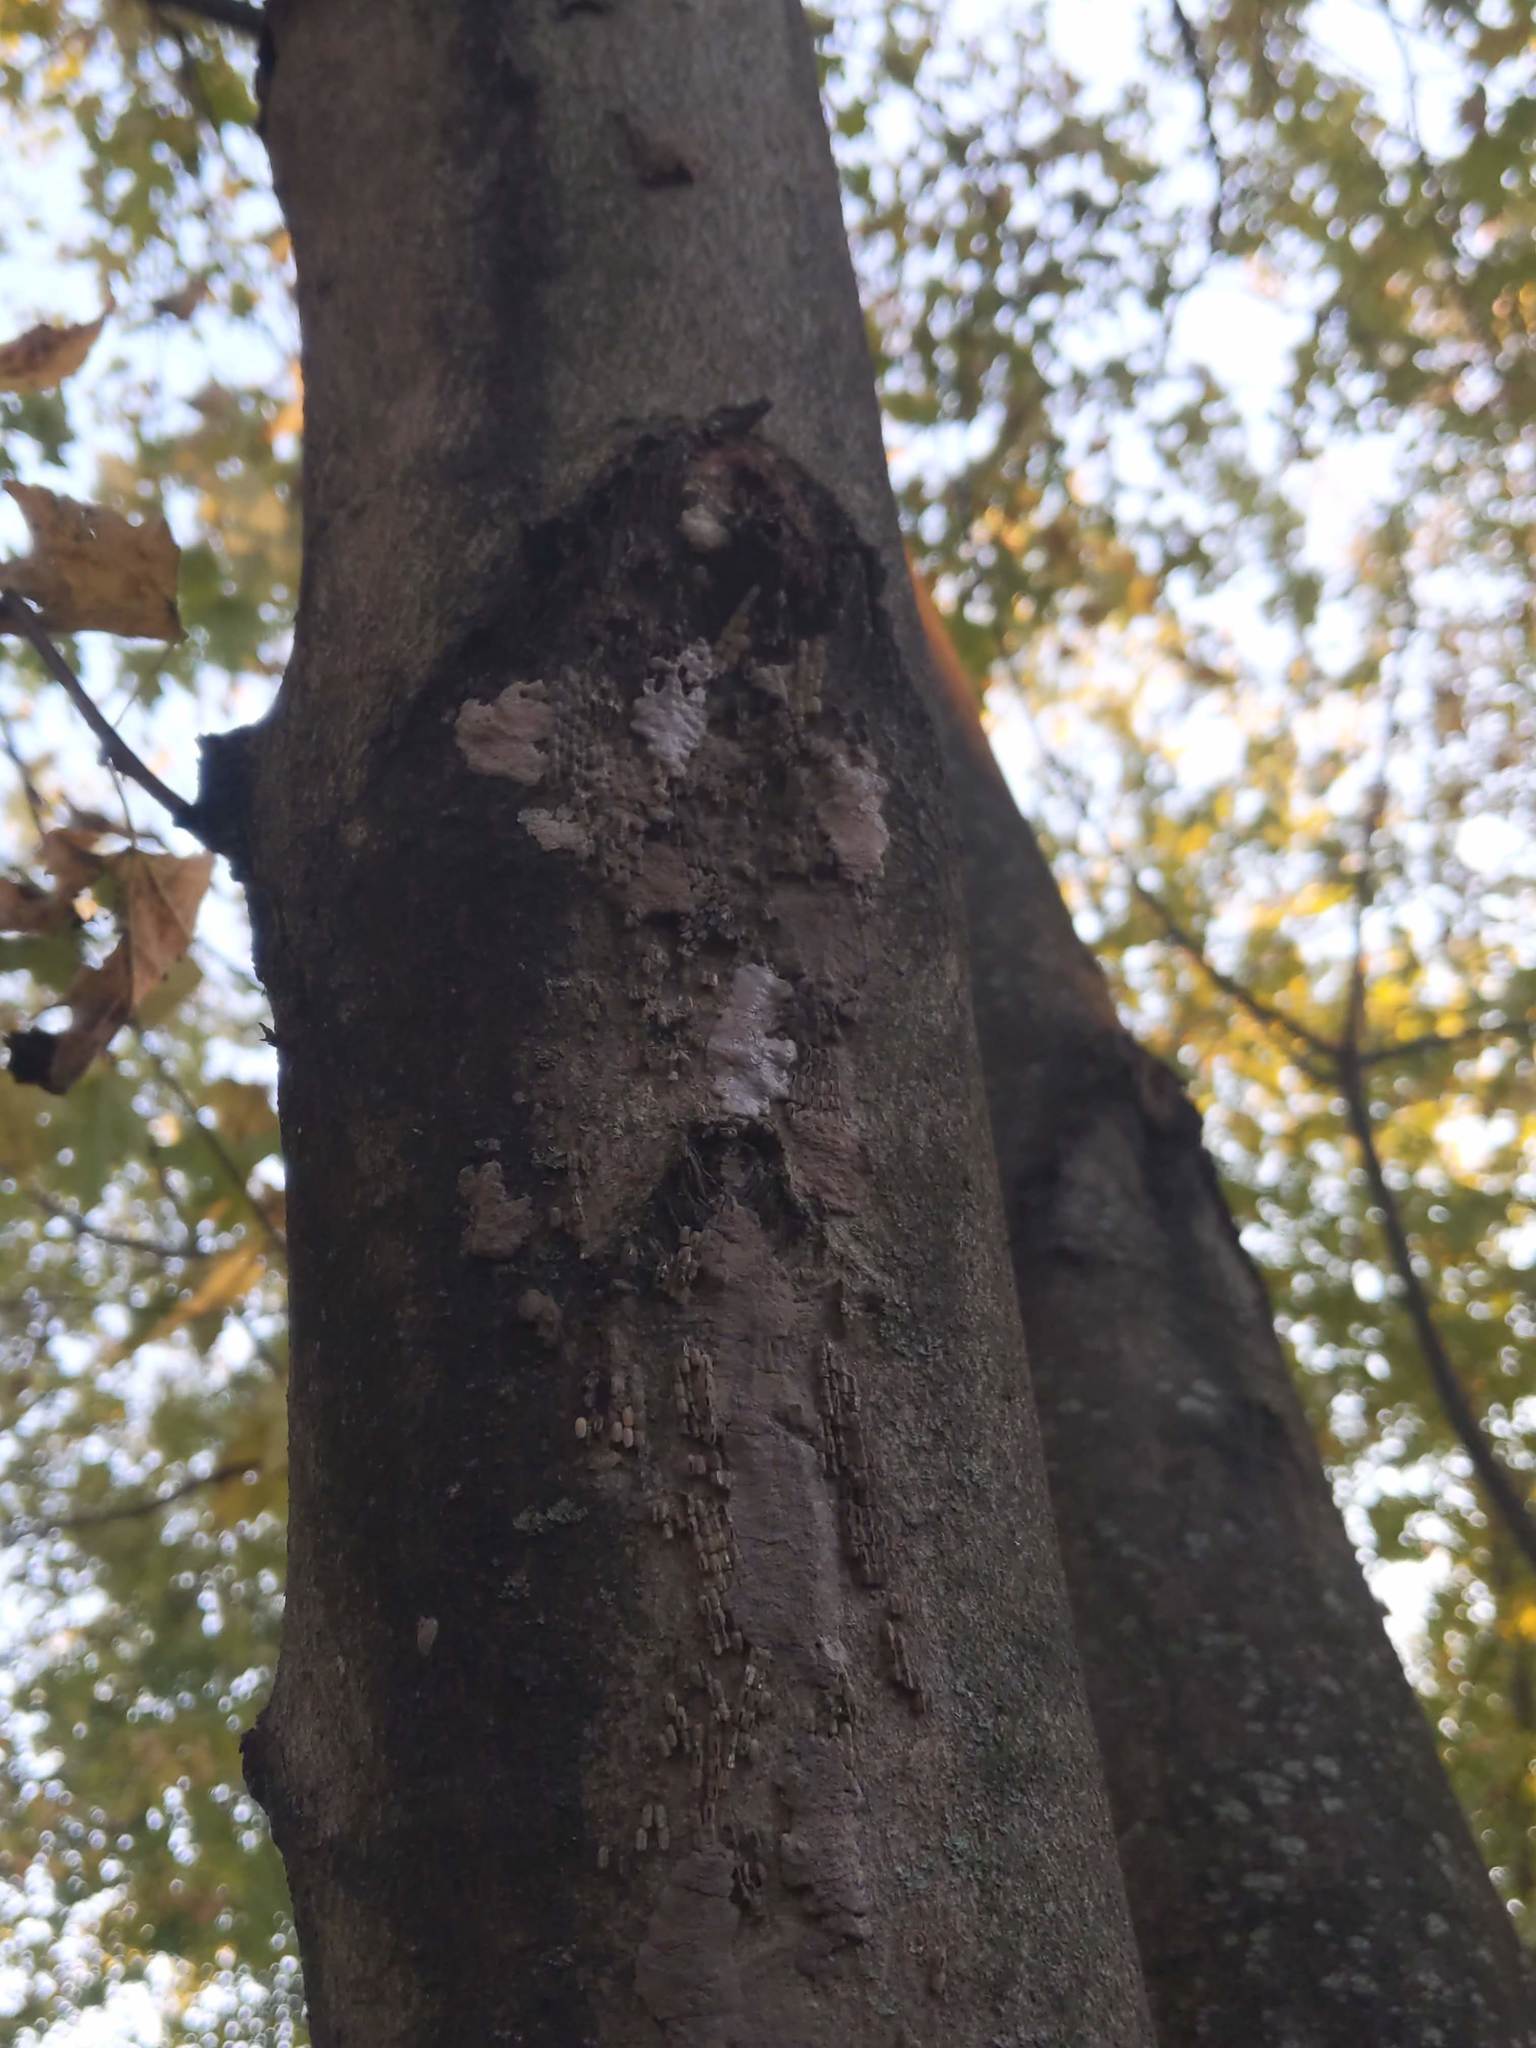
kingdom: Animalia
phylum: Arthropoda
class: Insecta
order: Hemiptera
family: Fulgoridae
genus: Lycorma
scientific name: Lycorma delicatula
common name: Spotted lanternfly
